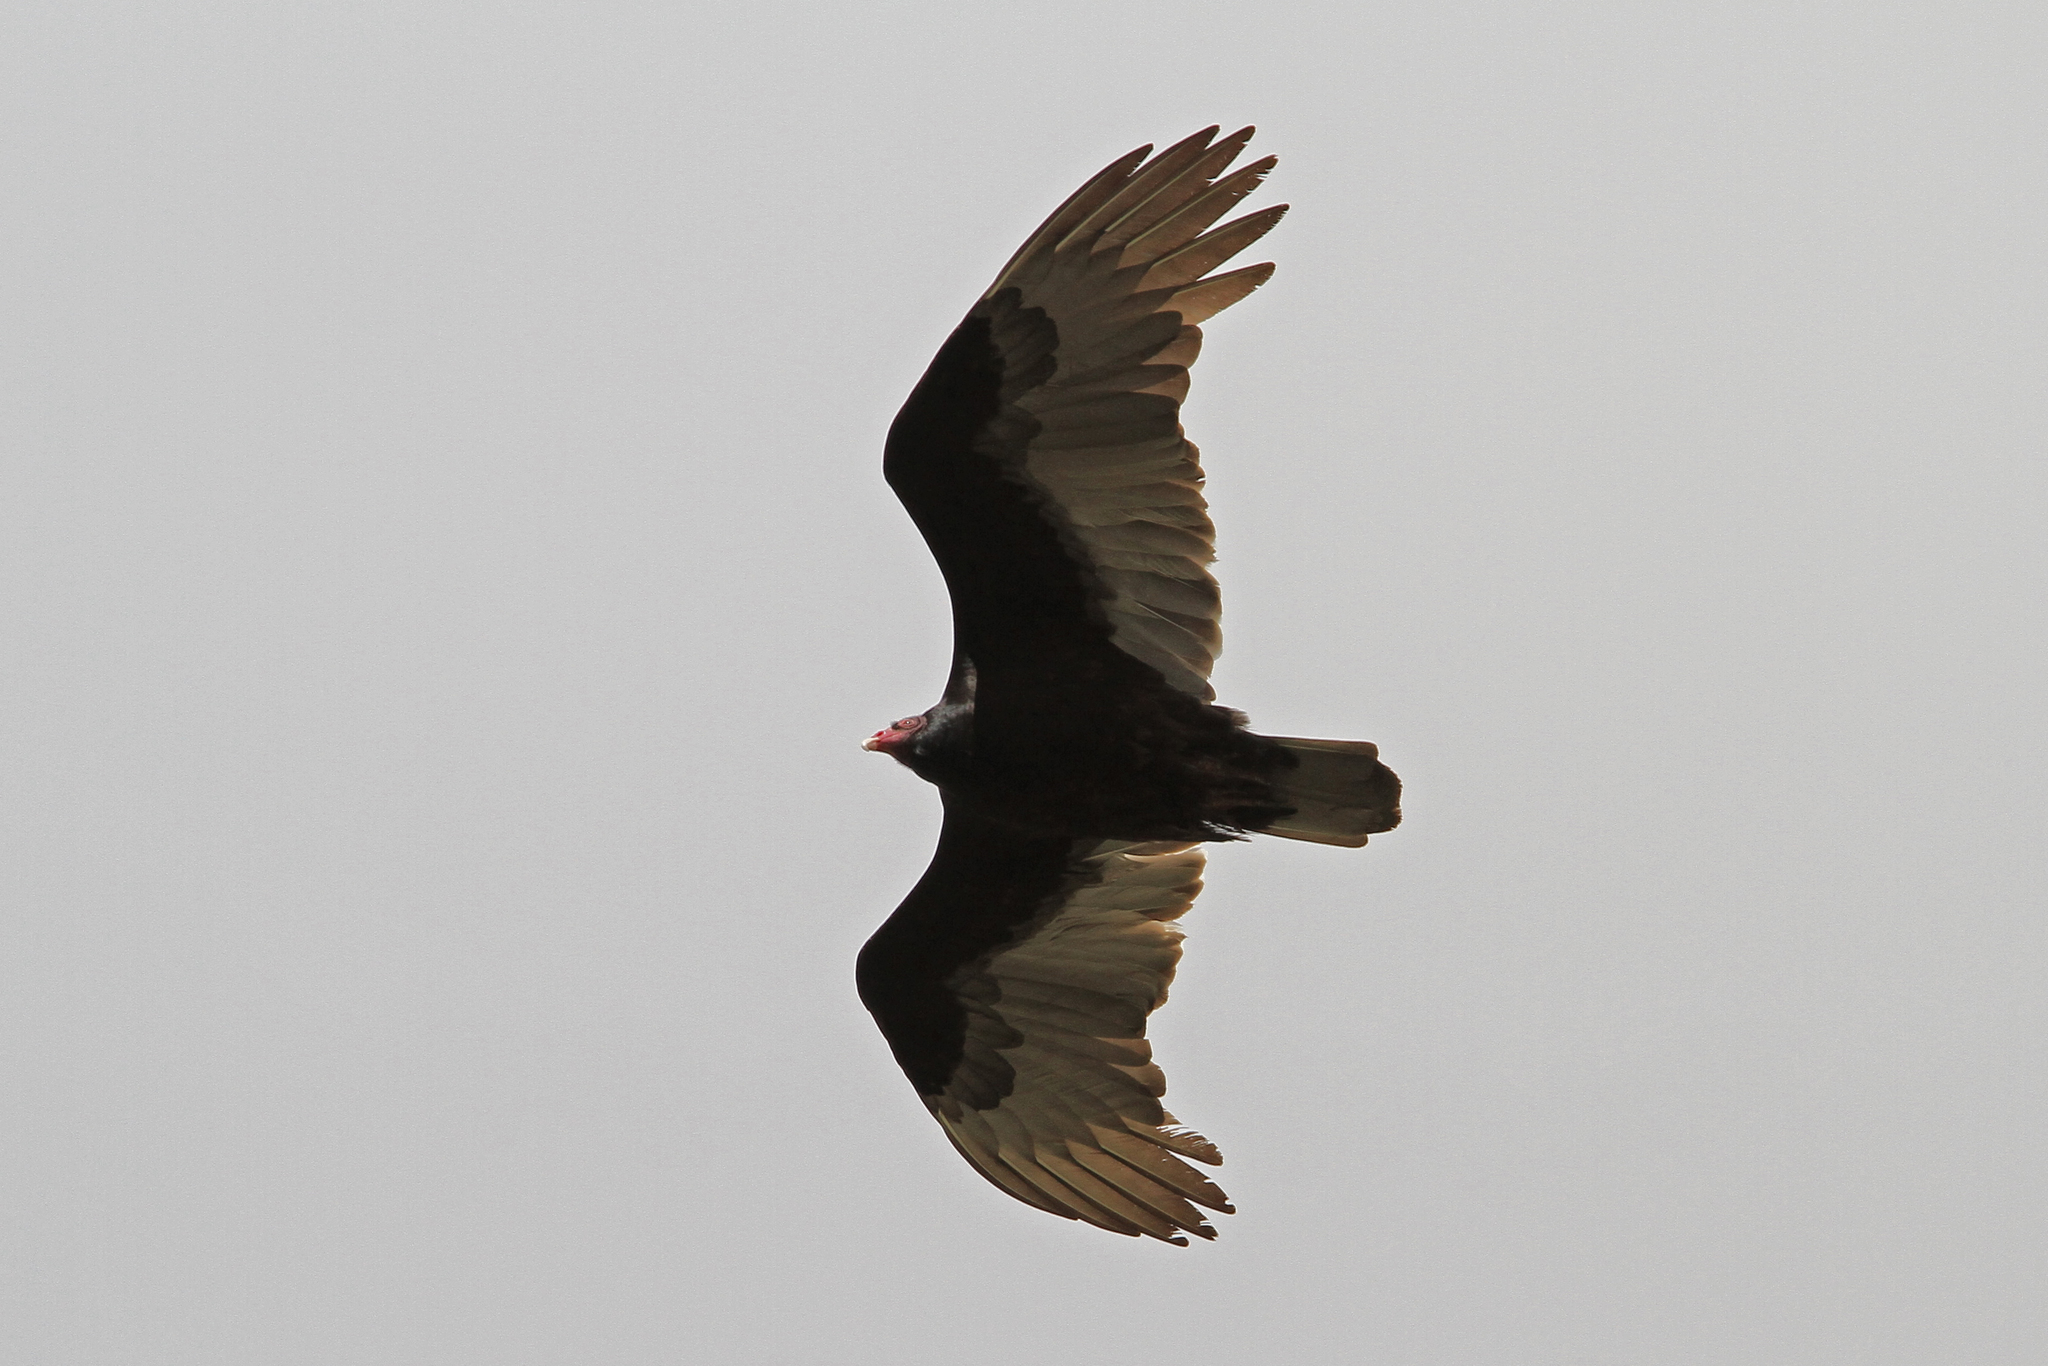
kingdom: Animalia
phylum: Chordata
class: Aves
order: Accipitriformes
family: Cathartidae
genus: Cathartes
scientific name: Cathartes aura
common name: Turkey vulture
